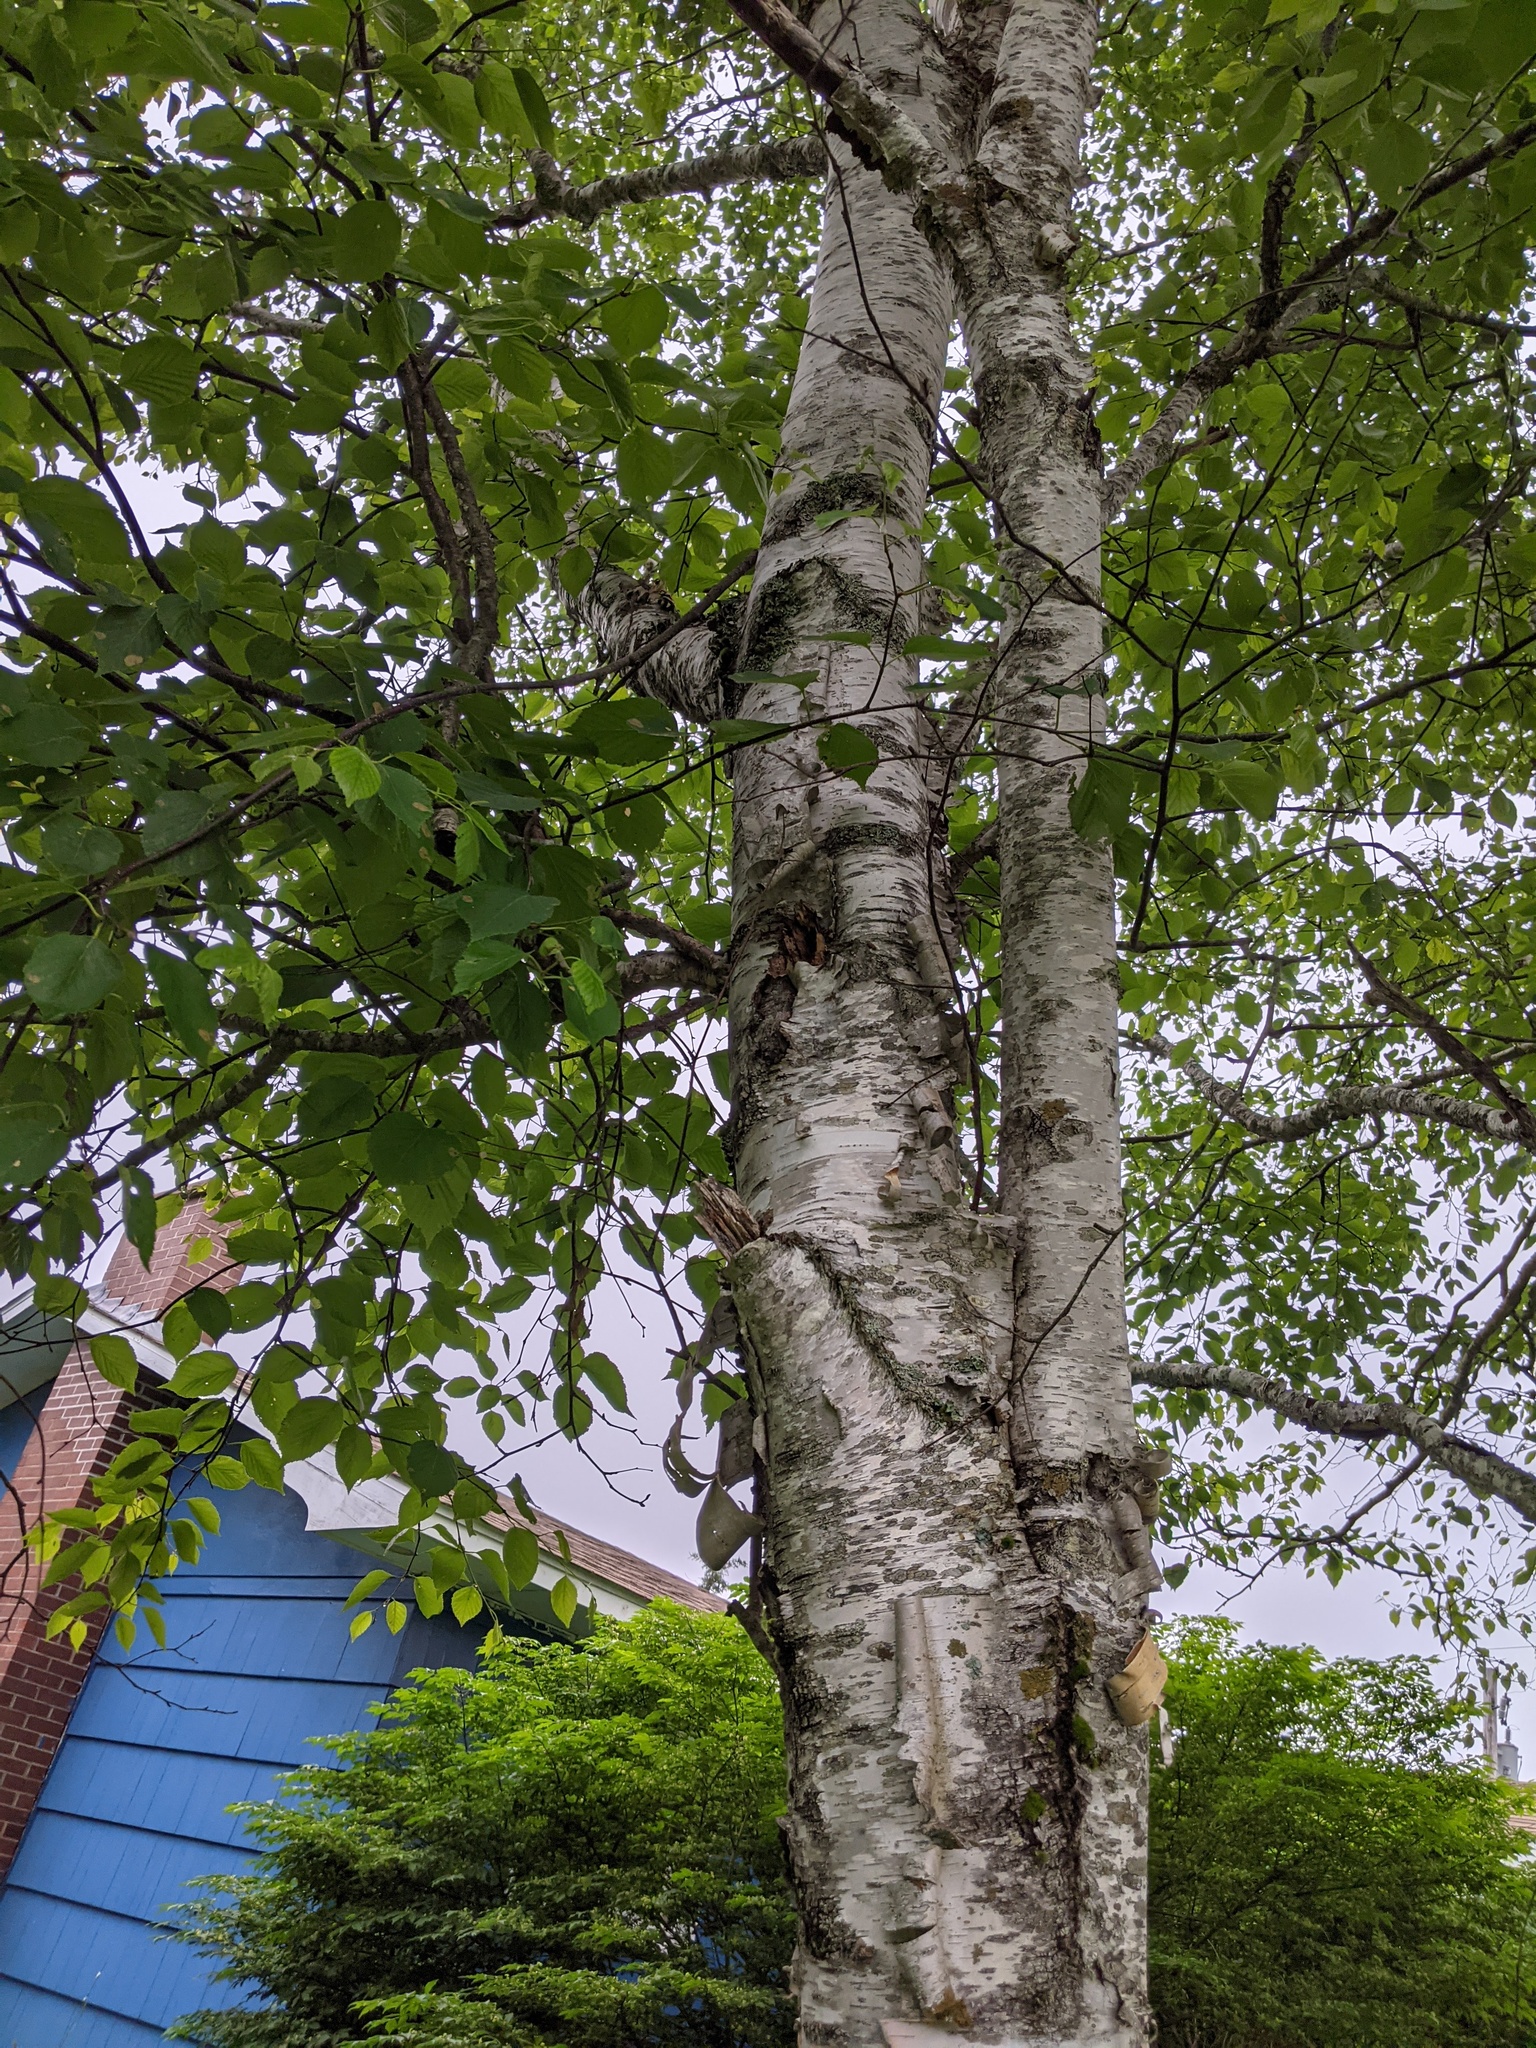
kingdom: Plantae
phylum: Tracheophyta
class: Magnoliopsida
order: Fagales
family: Betulaceae
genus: Betula
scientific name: Betula papyrifera
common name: Paper birch
